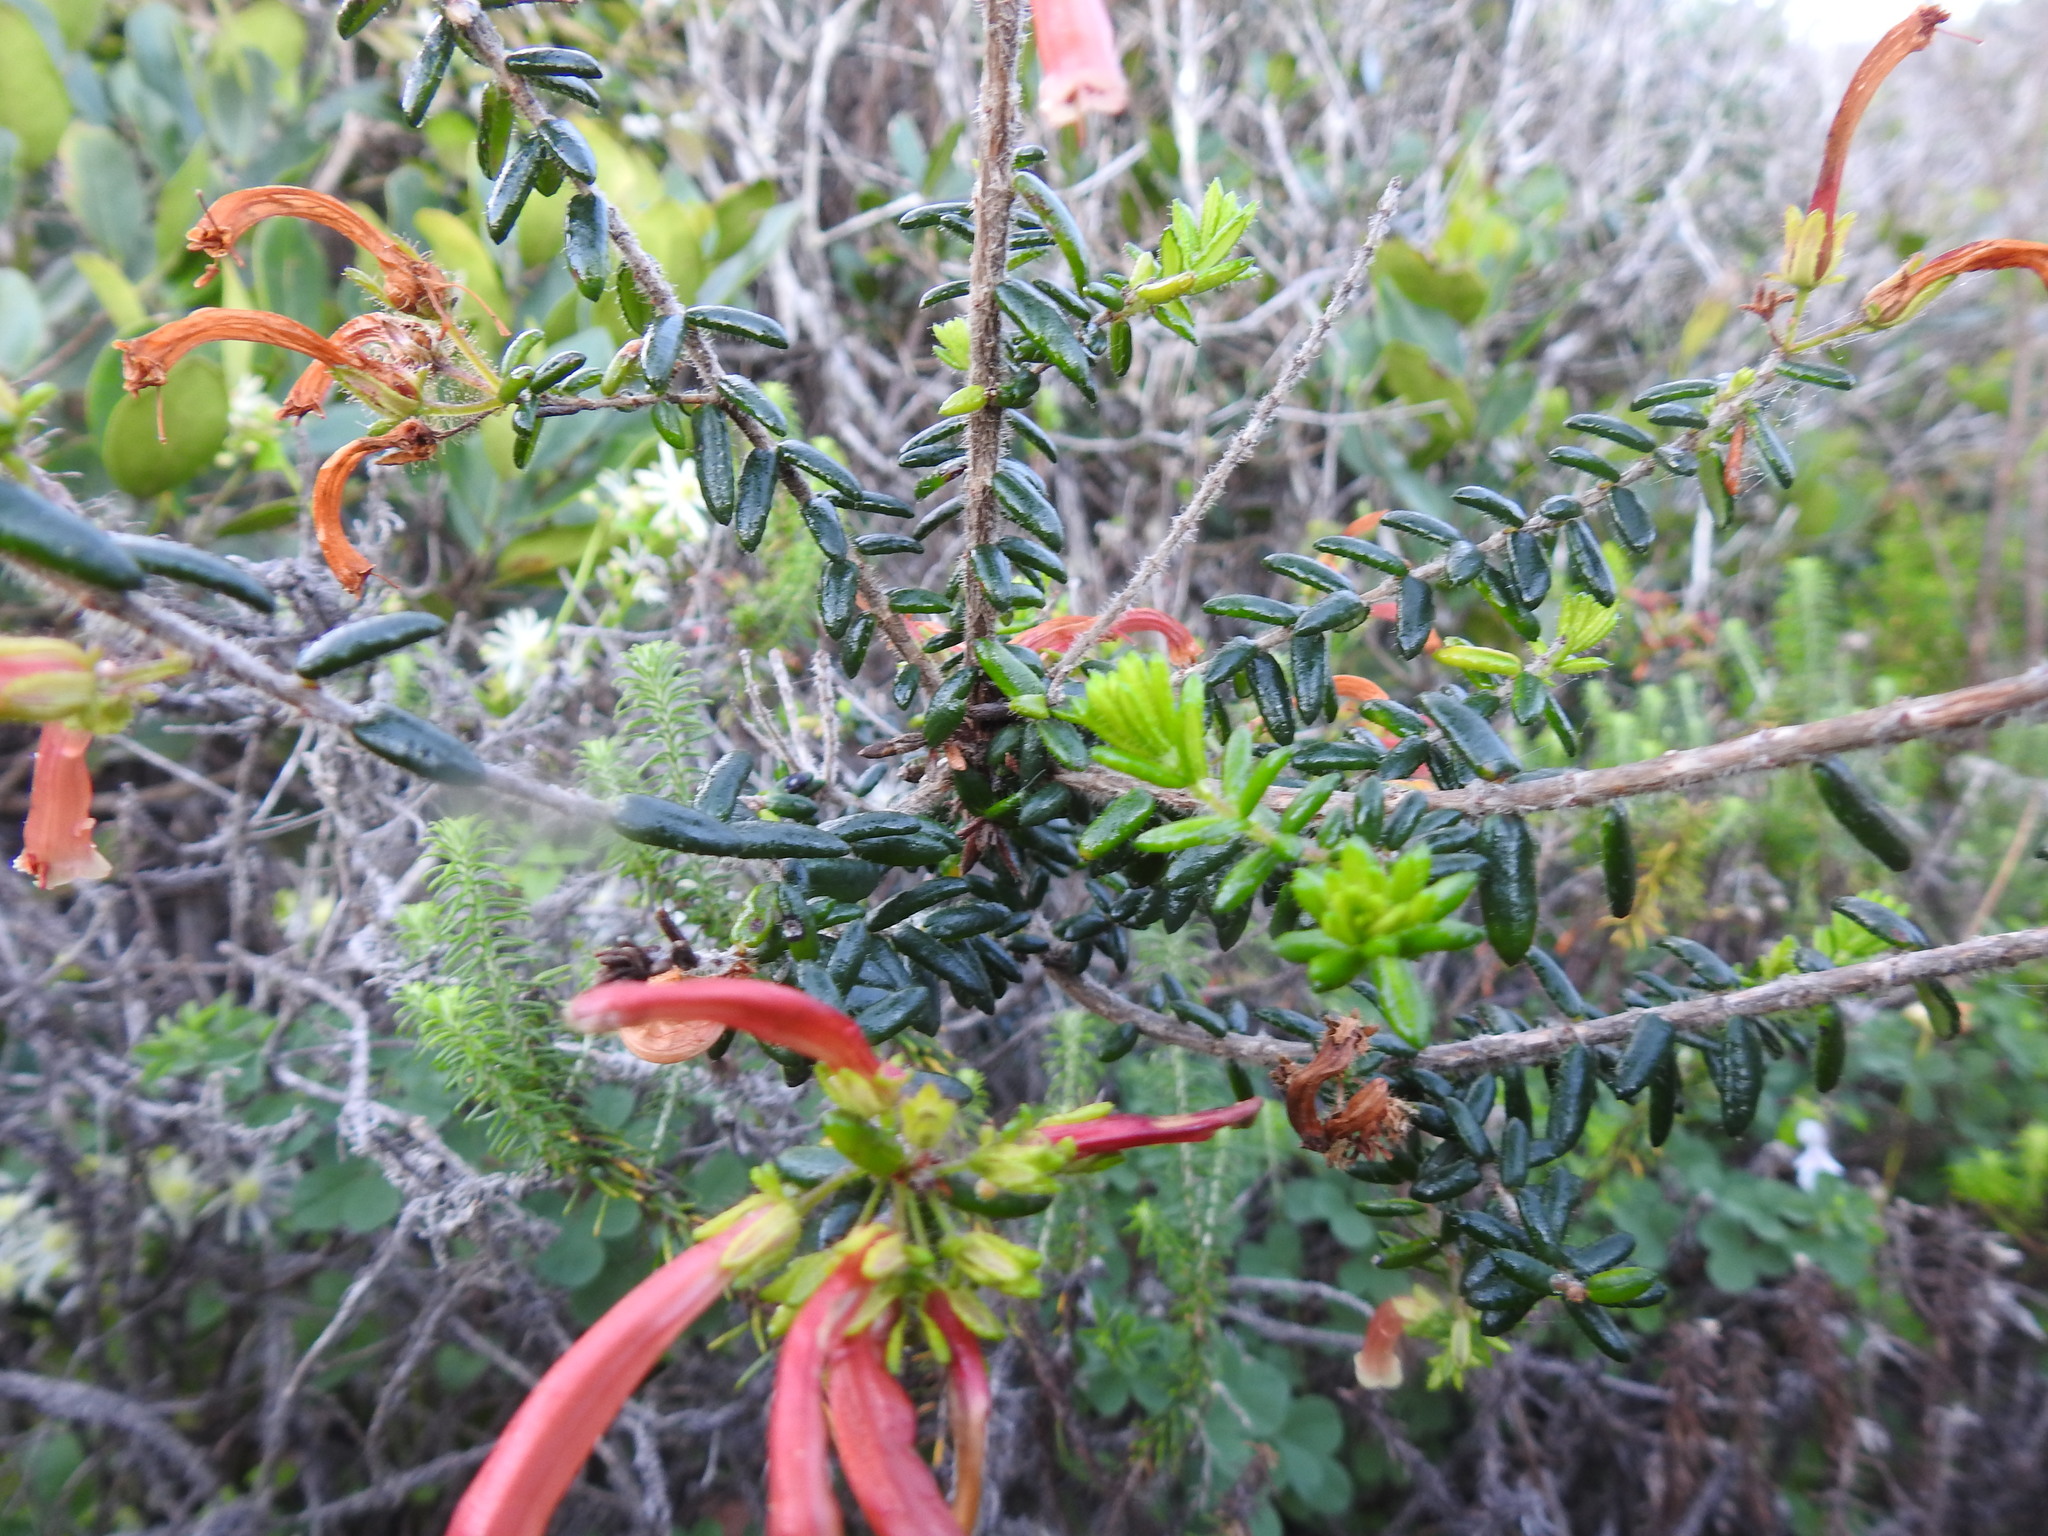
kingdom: Plantae
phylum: Tracheophyta
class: Magnoliopsida
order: Ericales
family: Ericaceae
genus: Erica
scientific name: Erica glandulosa
